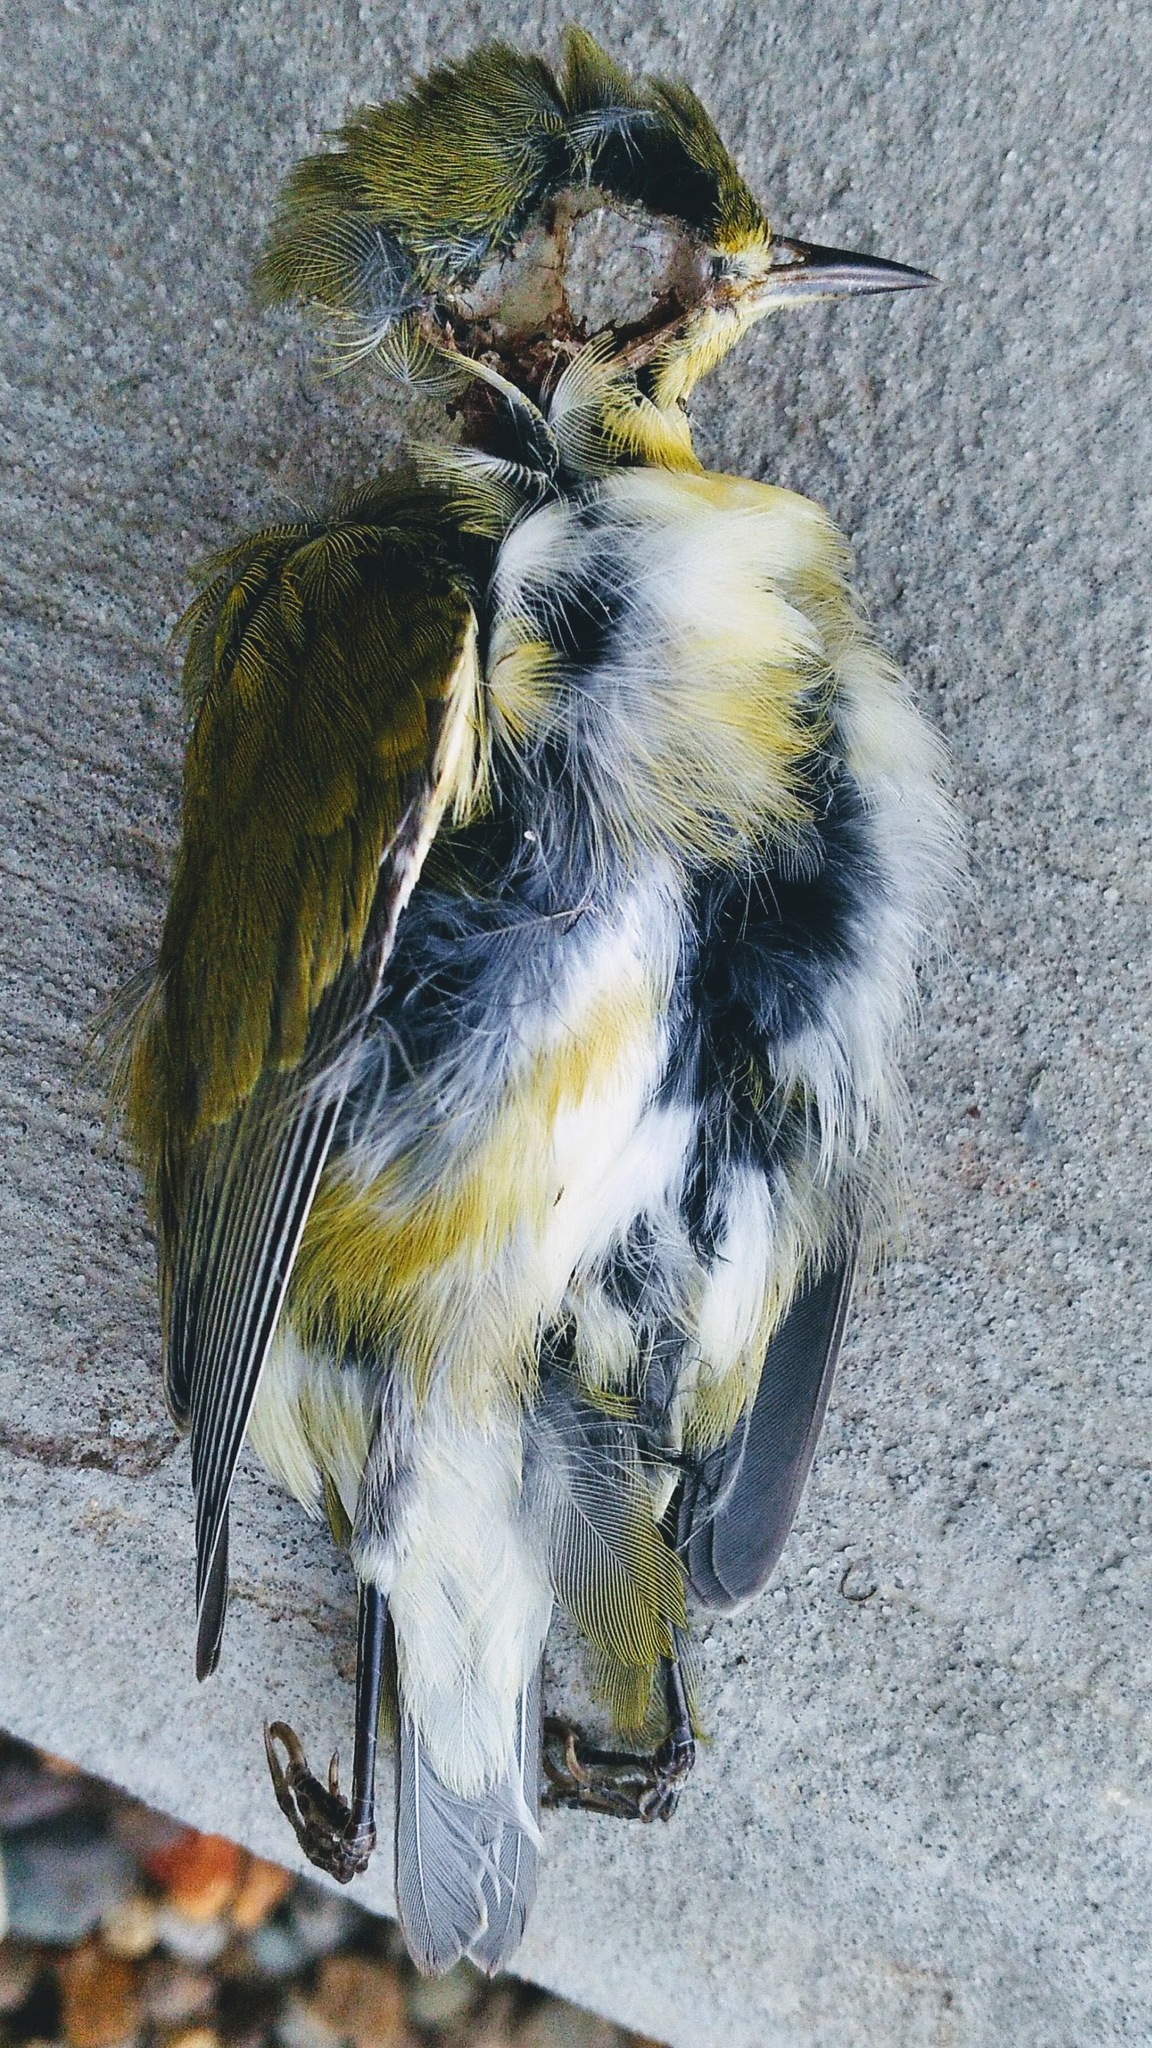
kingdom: Animalia
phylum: Chordata
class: Aves
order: Passeriformes
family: Parulidae
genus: Leiothlypis
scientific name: Leiothlypis peregrina
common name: Tennessee warbler
